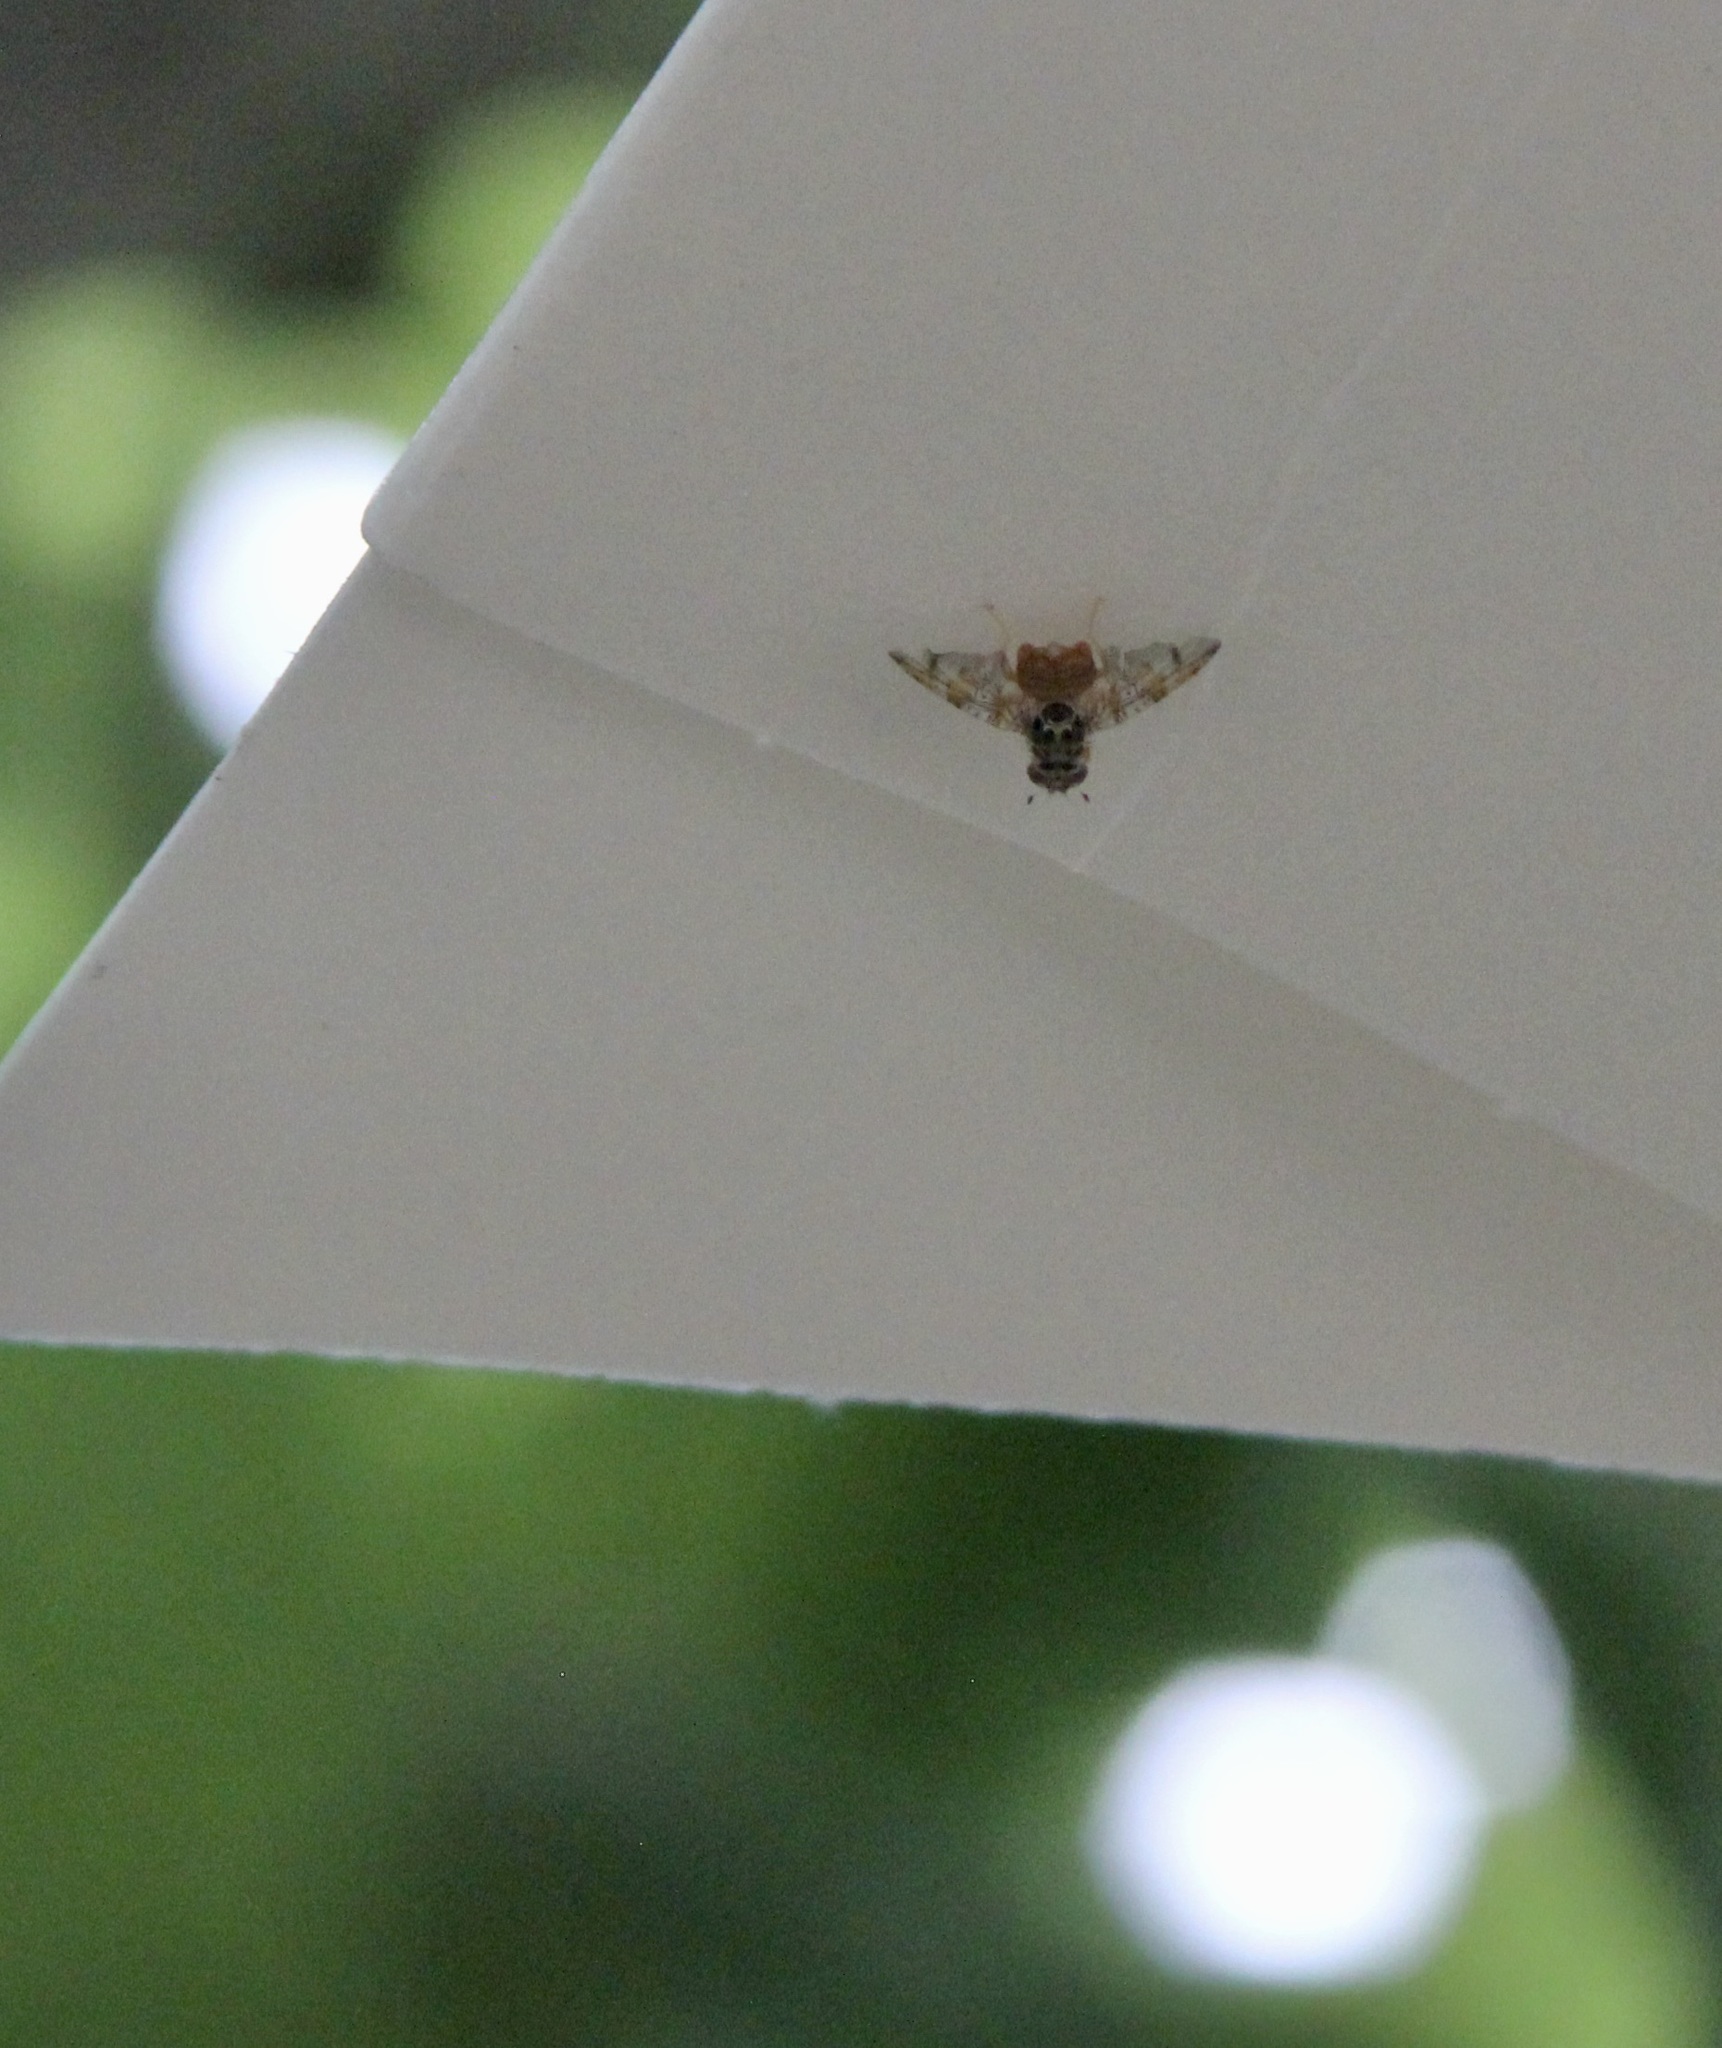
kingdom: Animalia
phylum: Arthropoda
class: Insecta
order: Diptera
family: Tephritidae
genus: Ceratitis
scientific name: Ceratitis capitata
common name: Mediterranean fruit fly
